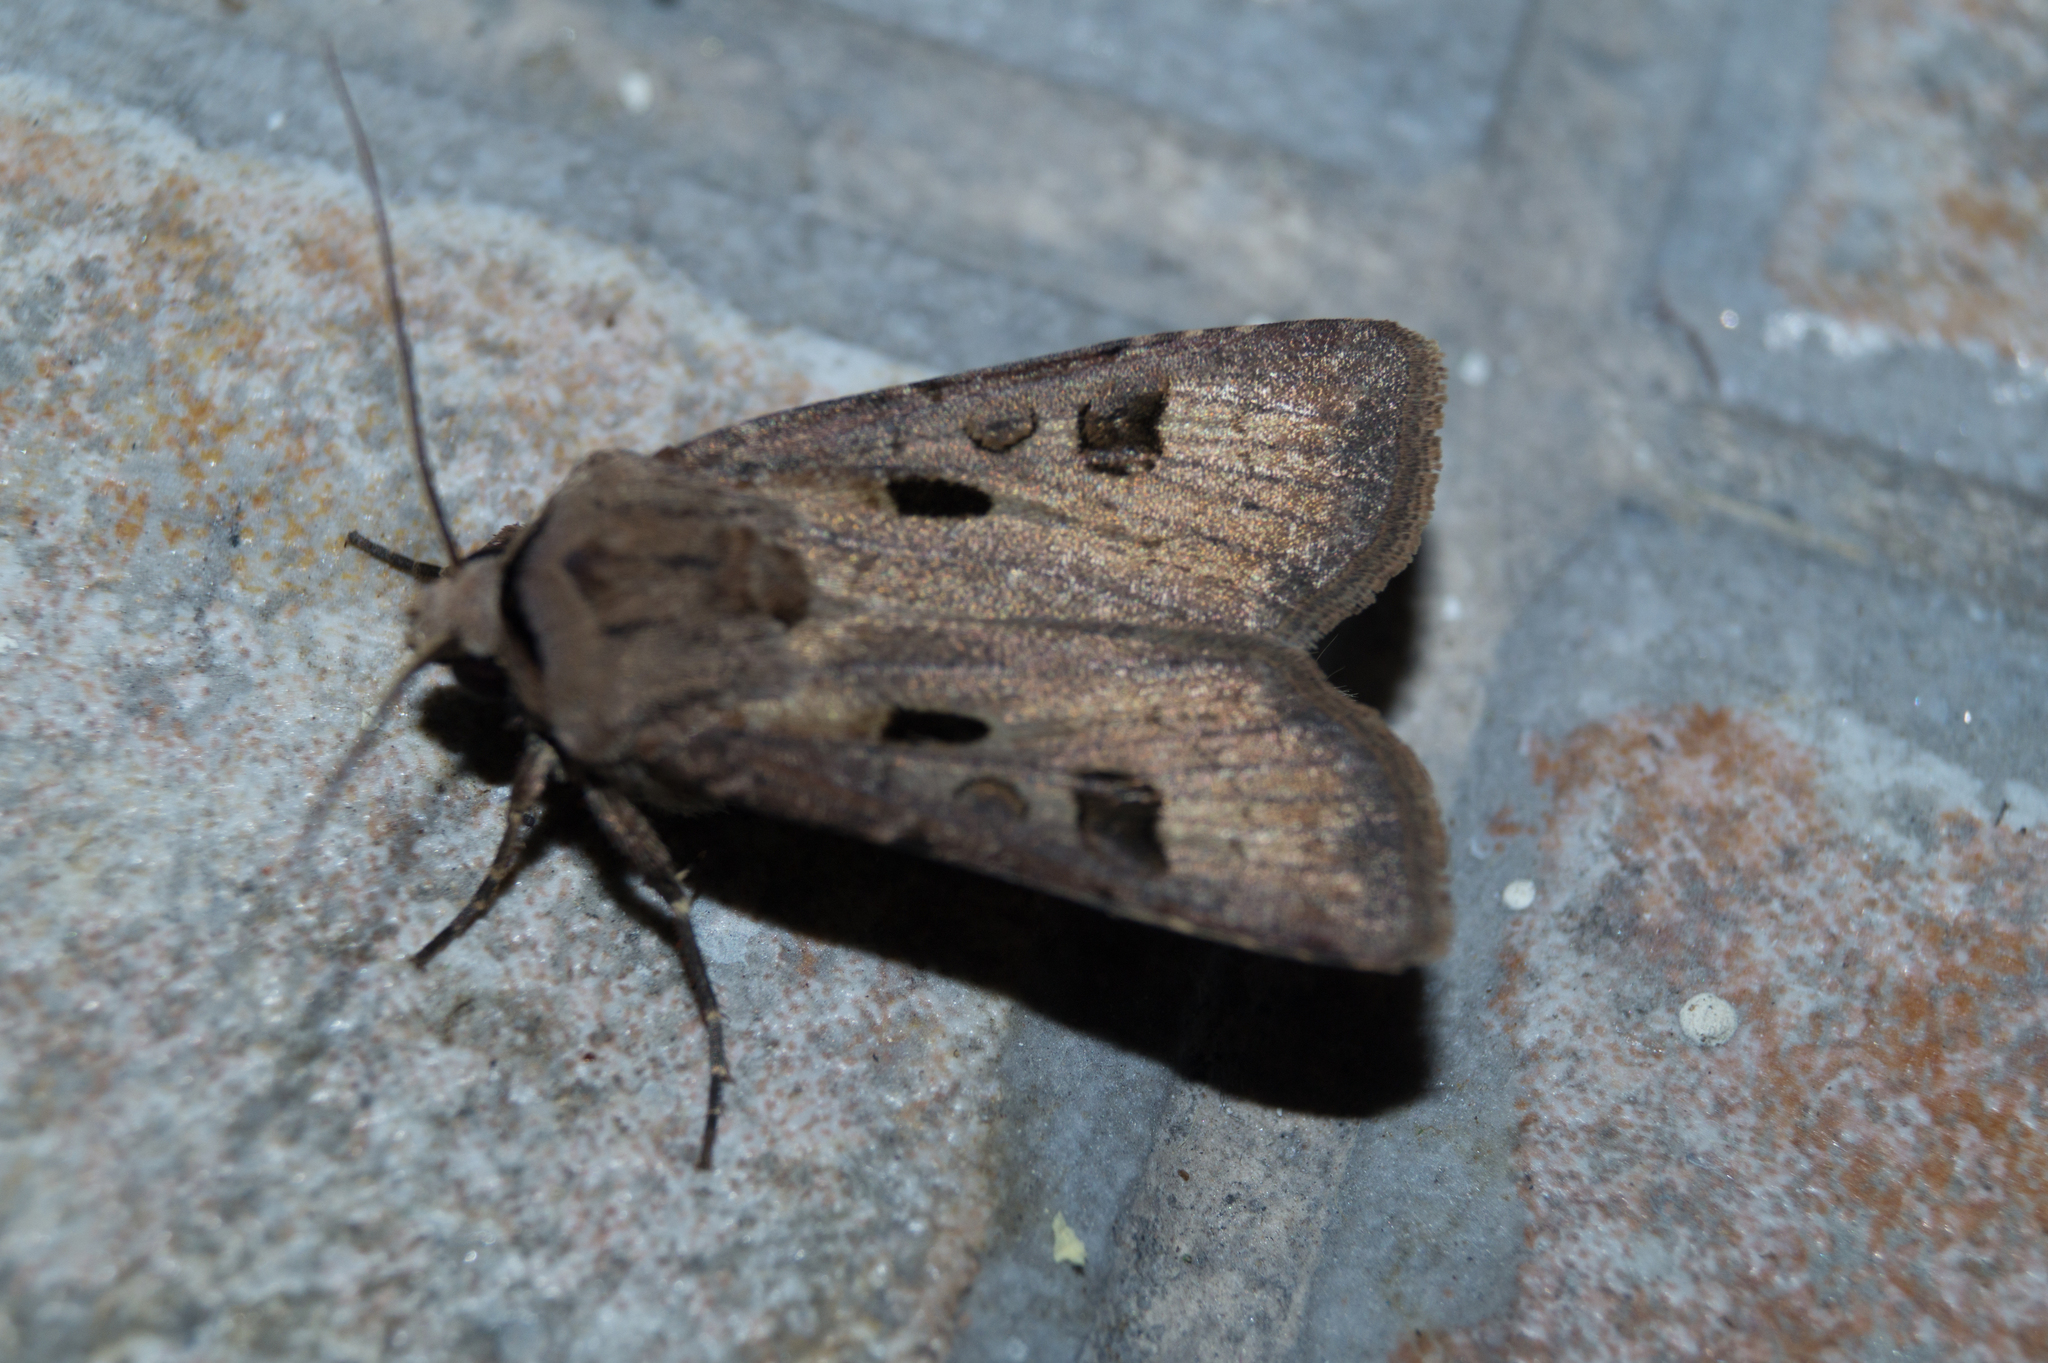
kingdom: Animalia
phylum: Arthropoda
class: Insecta
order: Lepidoptera
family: Noctuidae
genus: Agrotis
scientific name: Agrotis exclamationis
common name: Heart and dart
